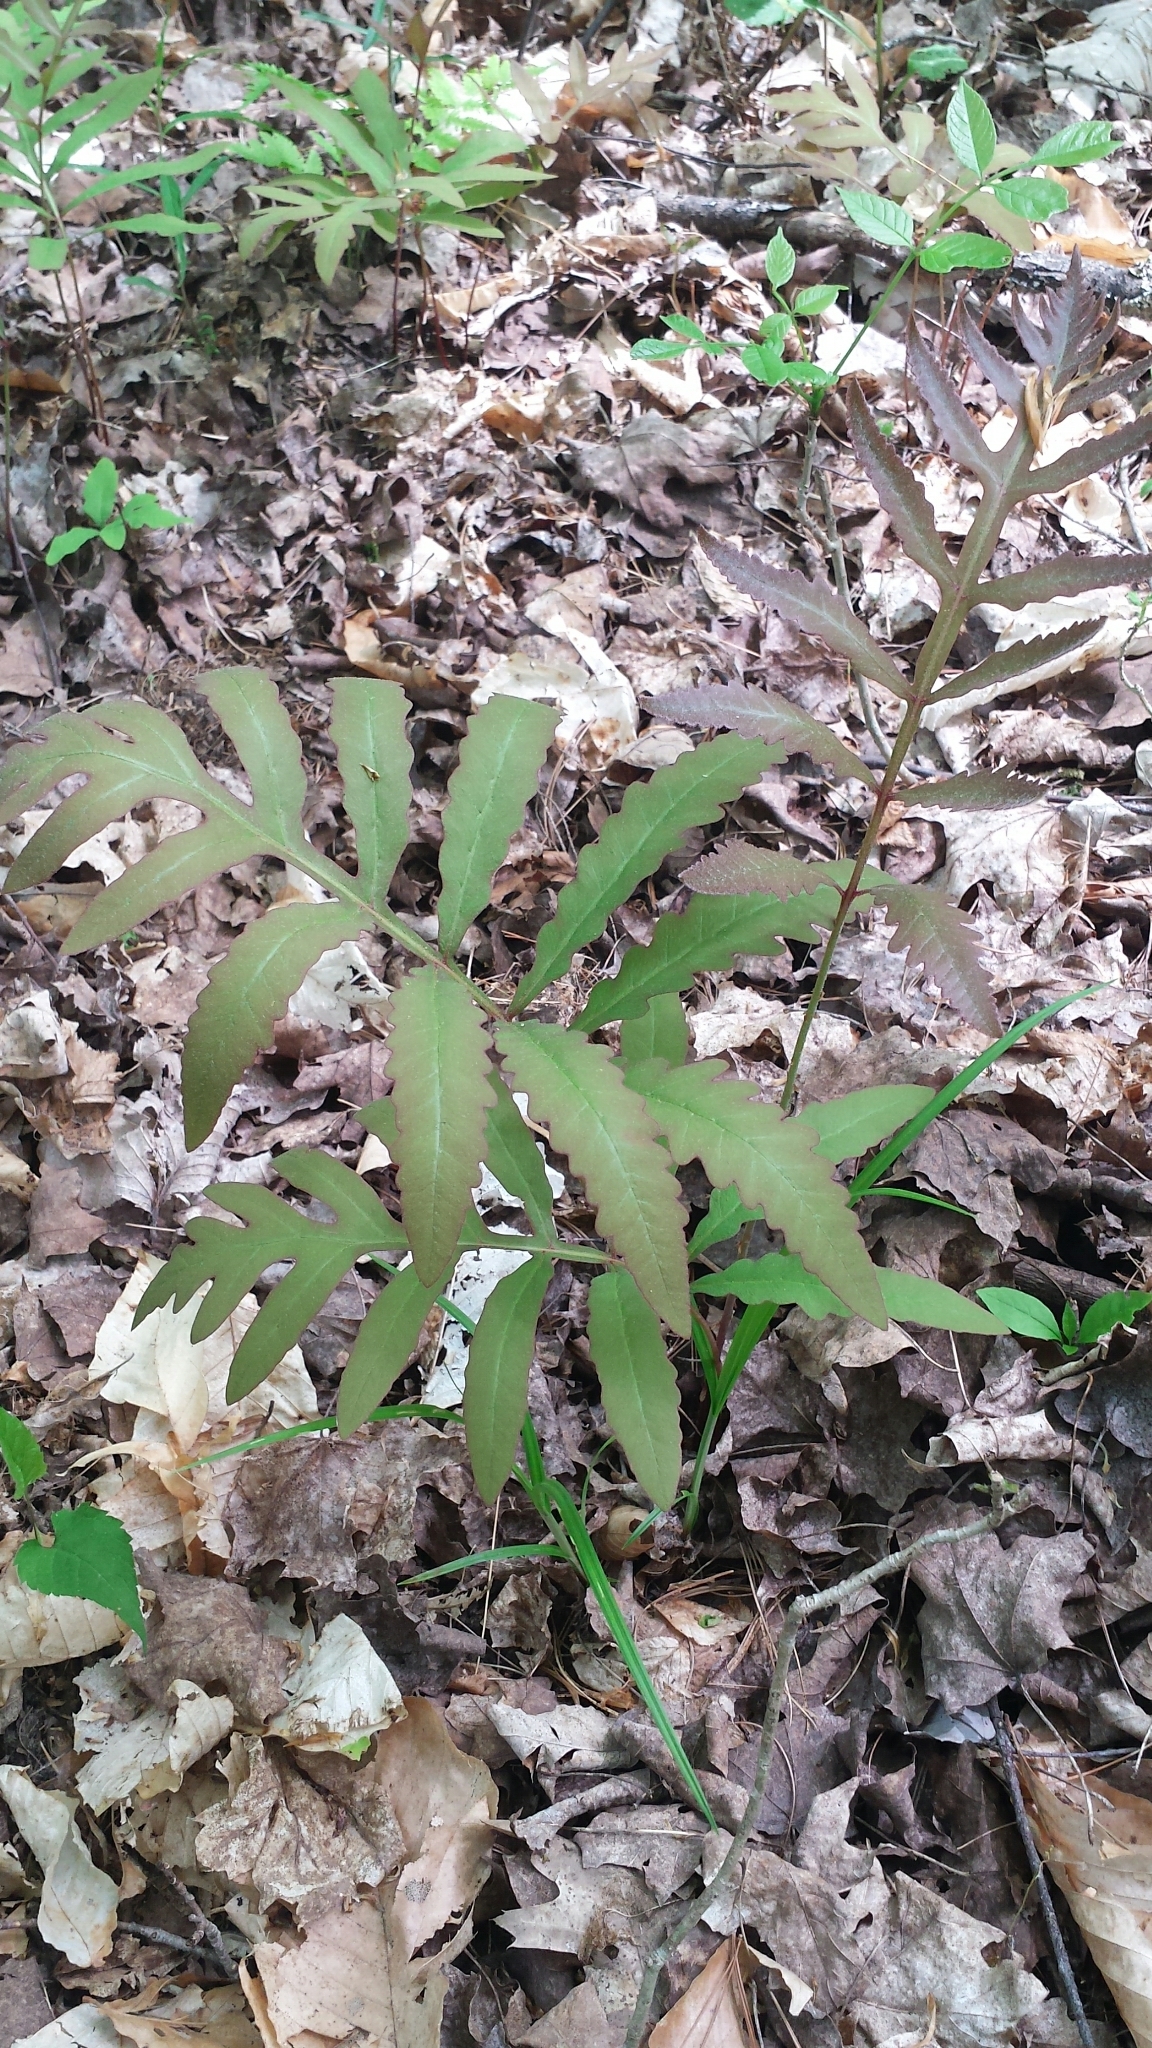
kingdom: Plantae
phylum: Tracheophyta
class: Polypodiopsida
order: Polypodiales
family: Onocleaceae
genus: Onoclea
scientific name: Onoclea sensibilis
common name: Sensitive fern
